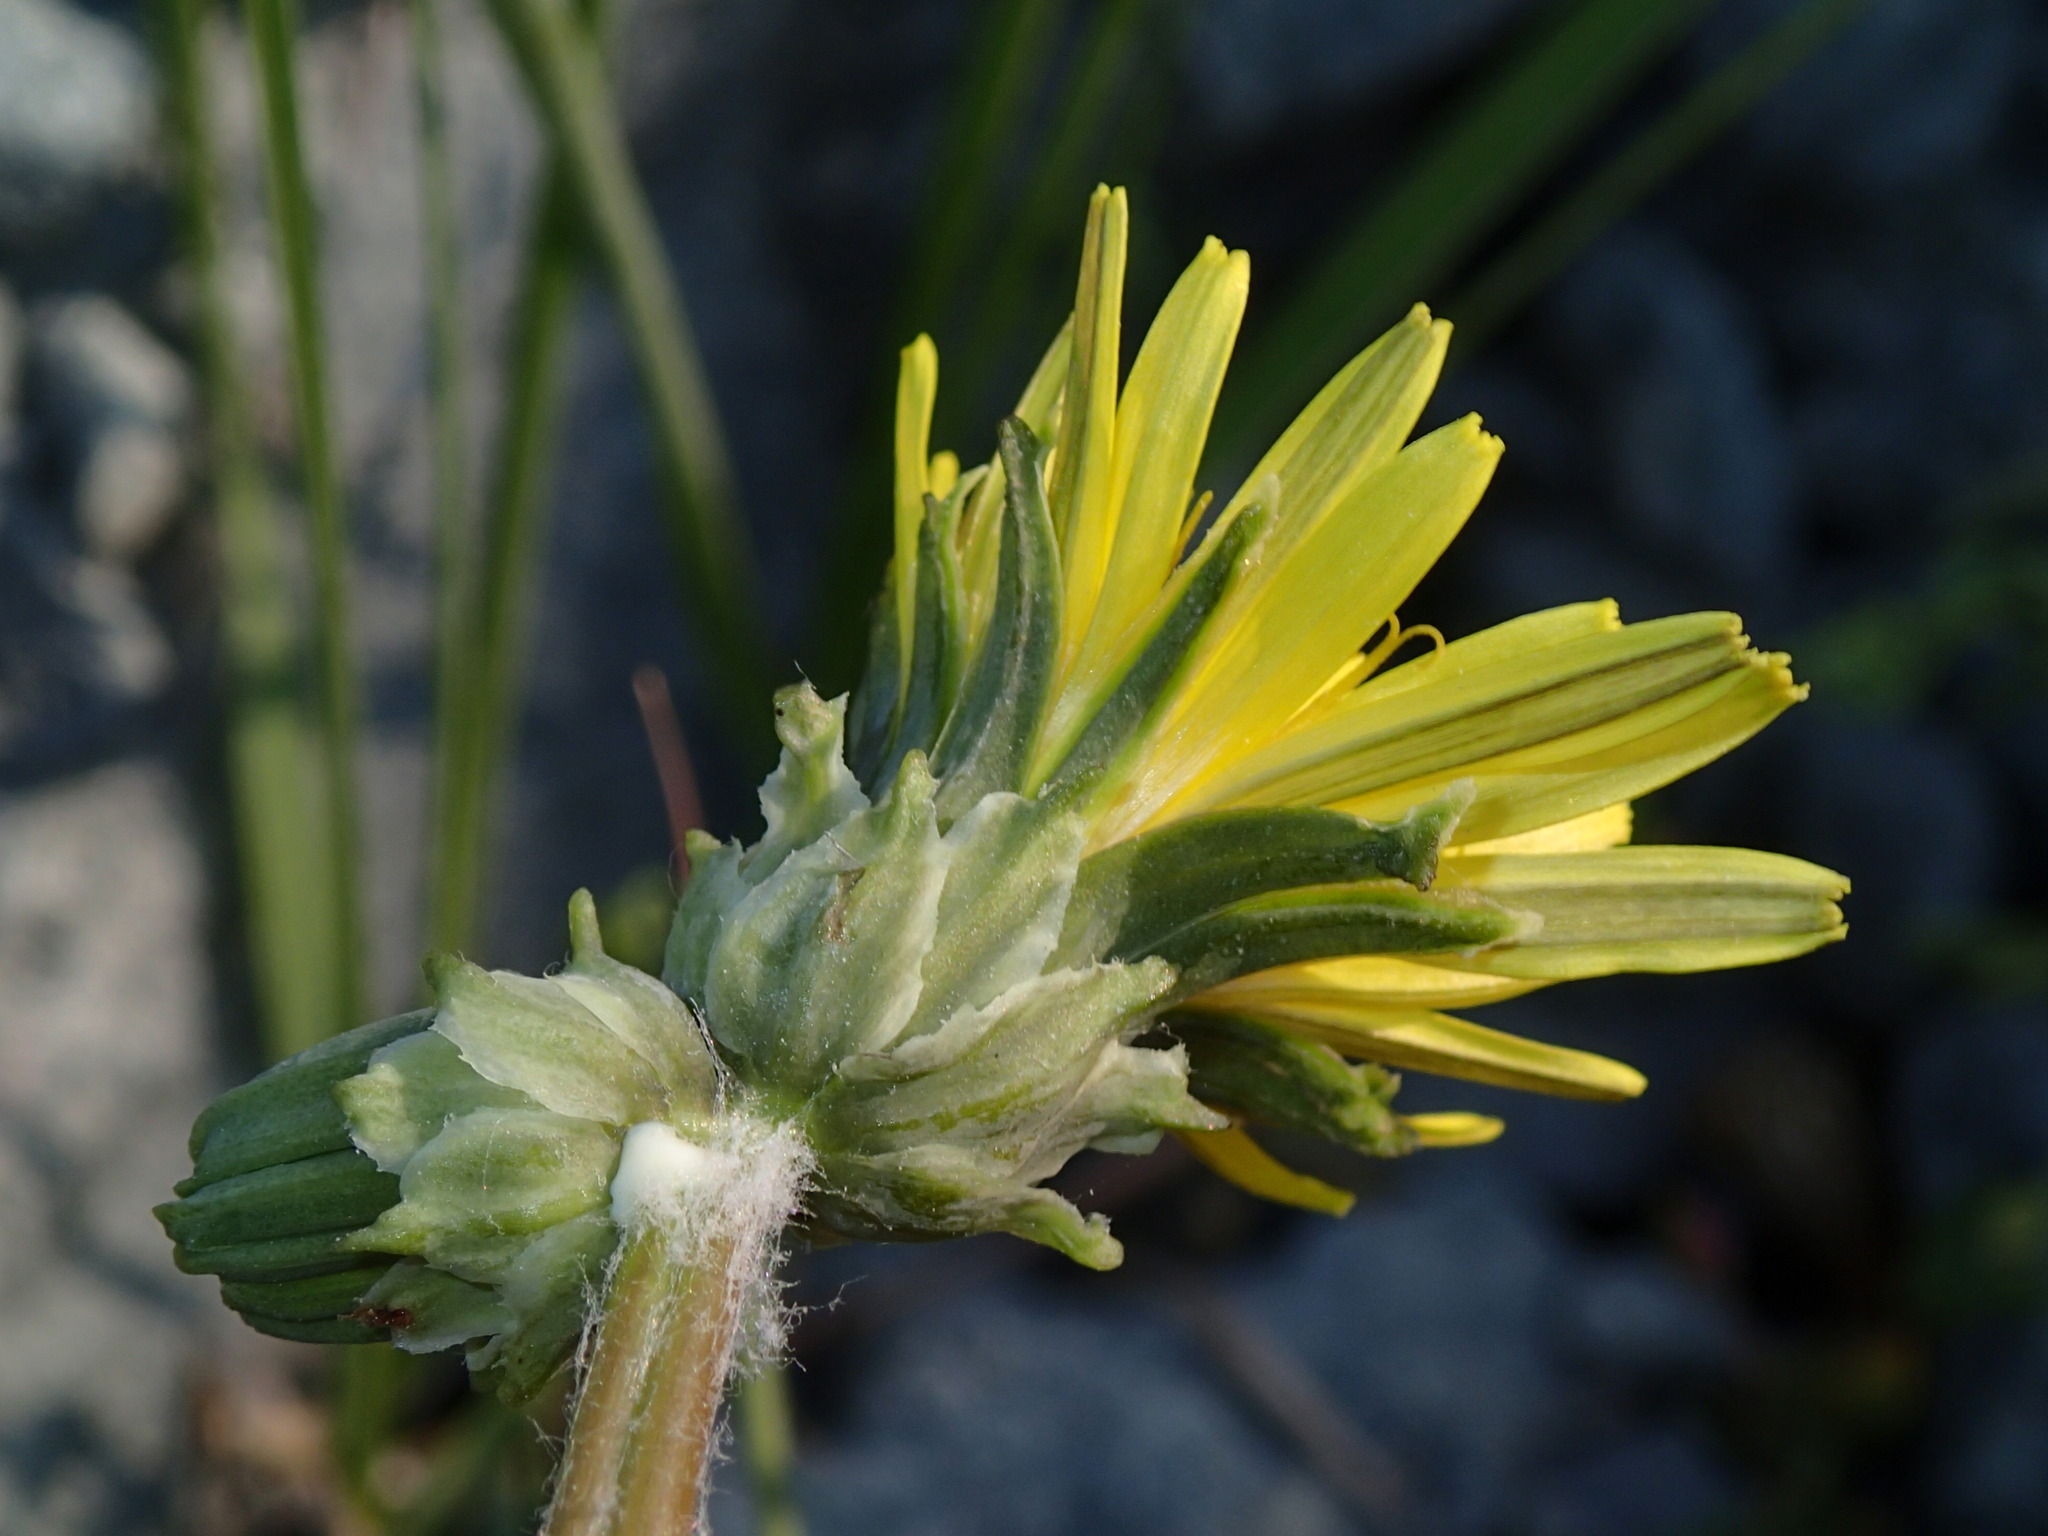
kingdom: Plantae
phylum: Tracheophyta
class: Magnoliopsida
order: Asterales
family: Asteraceae
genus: Taraxacum
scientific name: Taraxacum ceratophorum
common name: Horn-bearing dandelion
